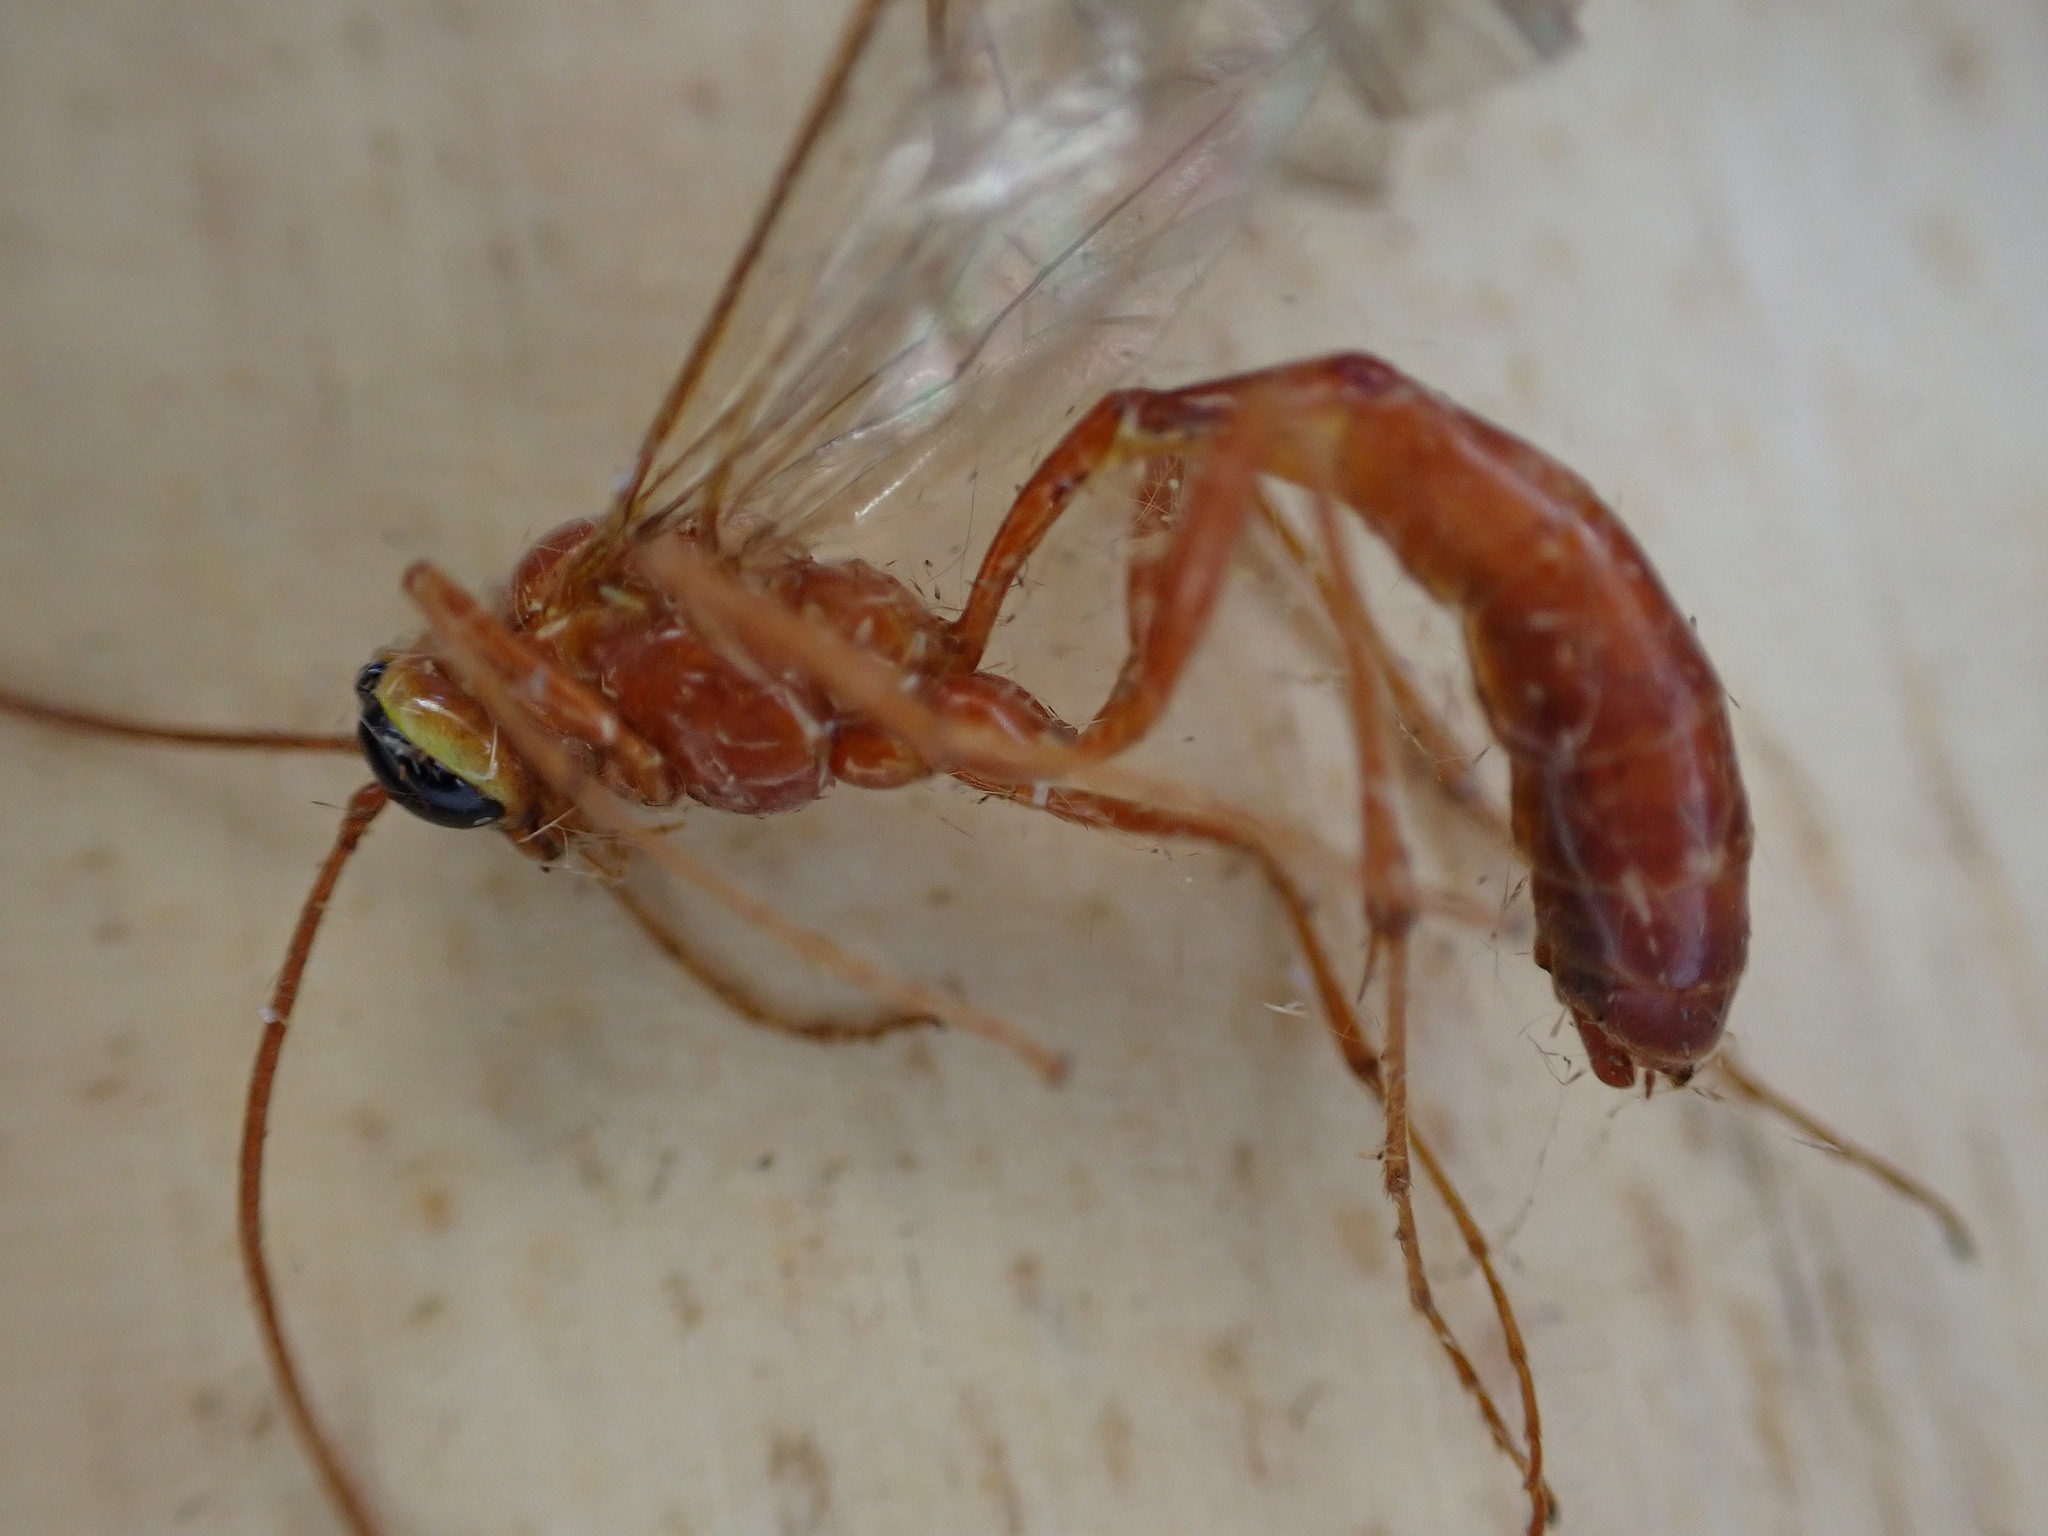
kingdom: Animalia
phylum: Arthropoda
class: Insecta
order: Hymenoptera
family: Ichneumonidae
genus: Ophion
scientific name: Ophion
